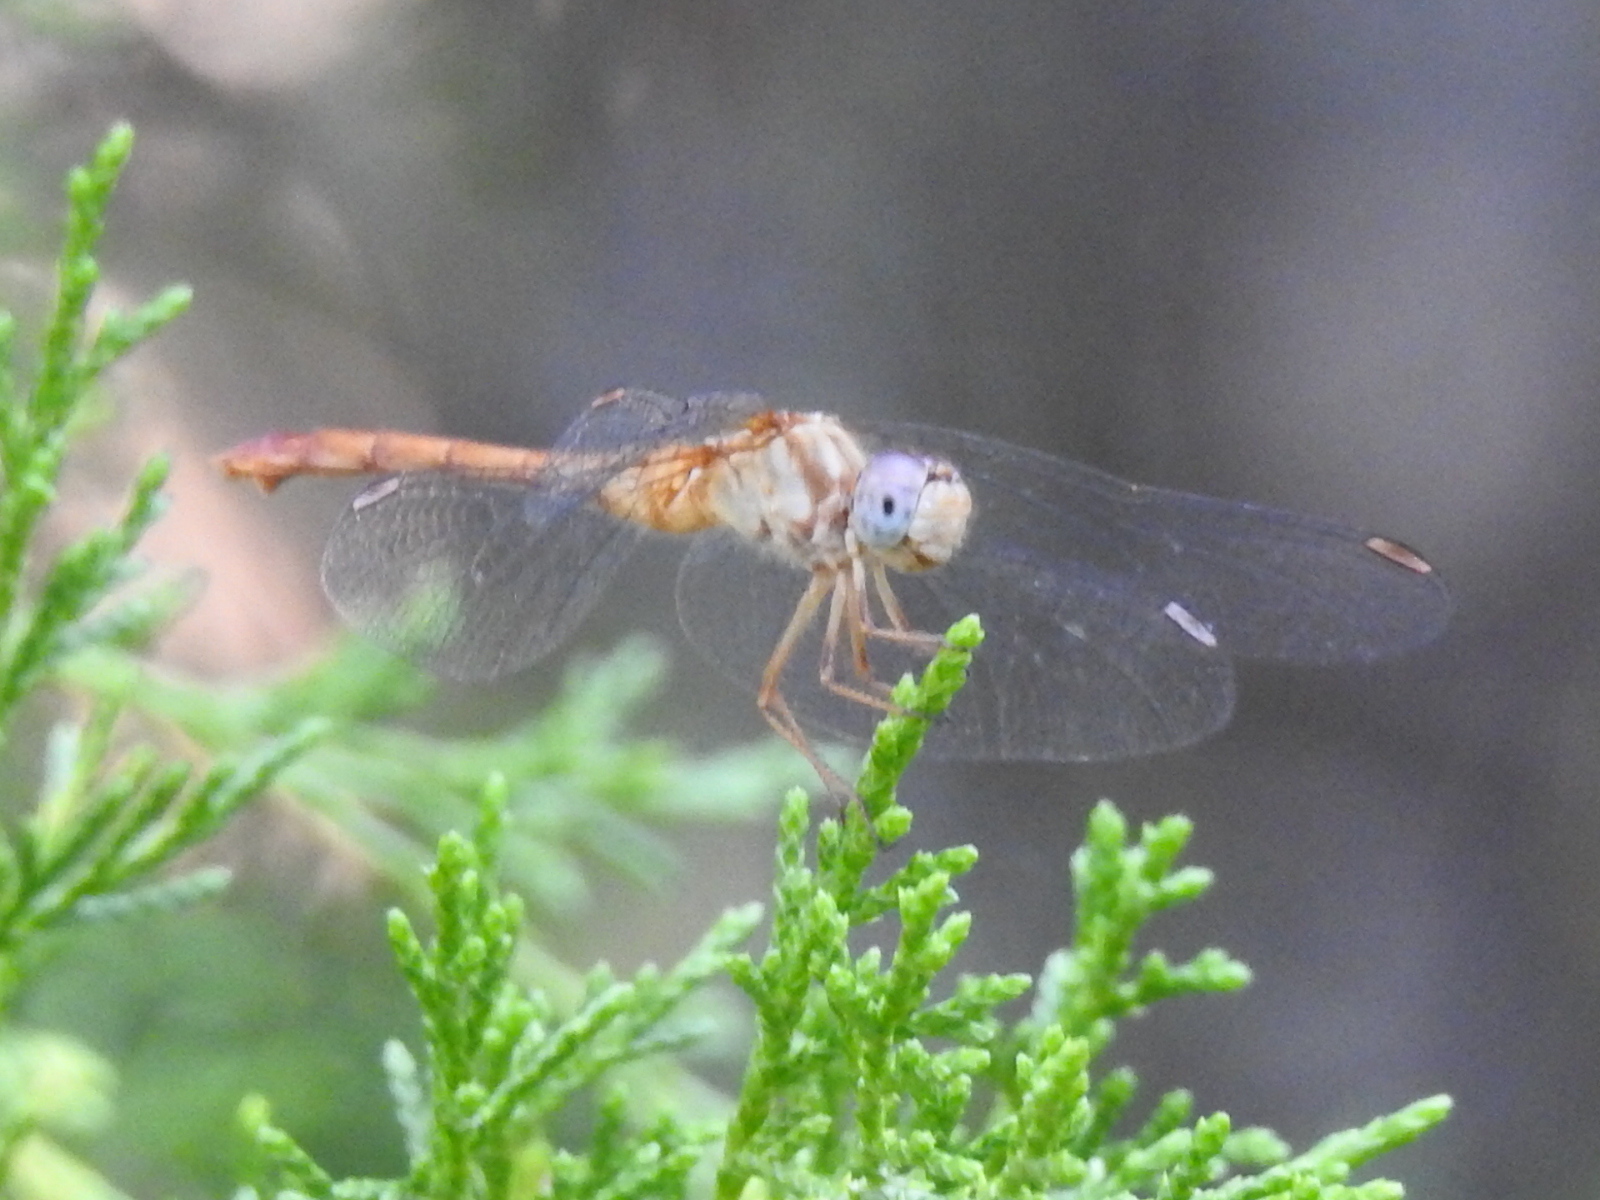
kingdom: Animalia
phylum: Arthropoda
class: Insecta
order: Odonata
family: Libellulidae
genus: Sympetrum
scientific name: Sympetrum vicinum
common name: Autumn meadowhawk
